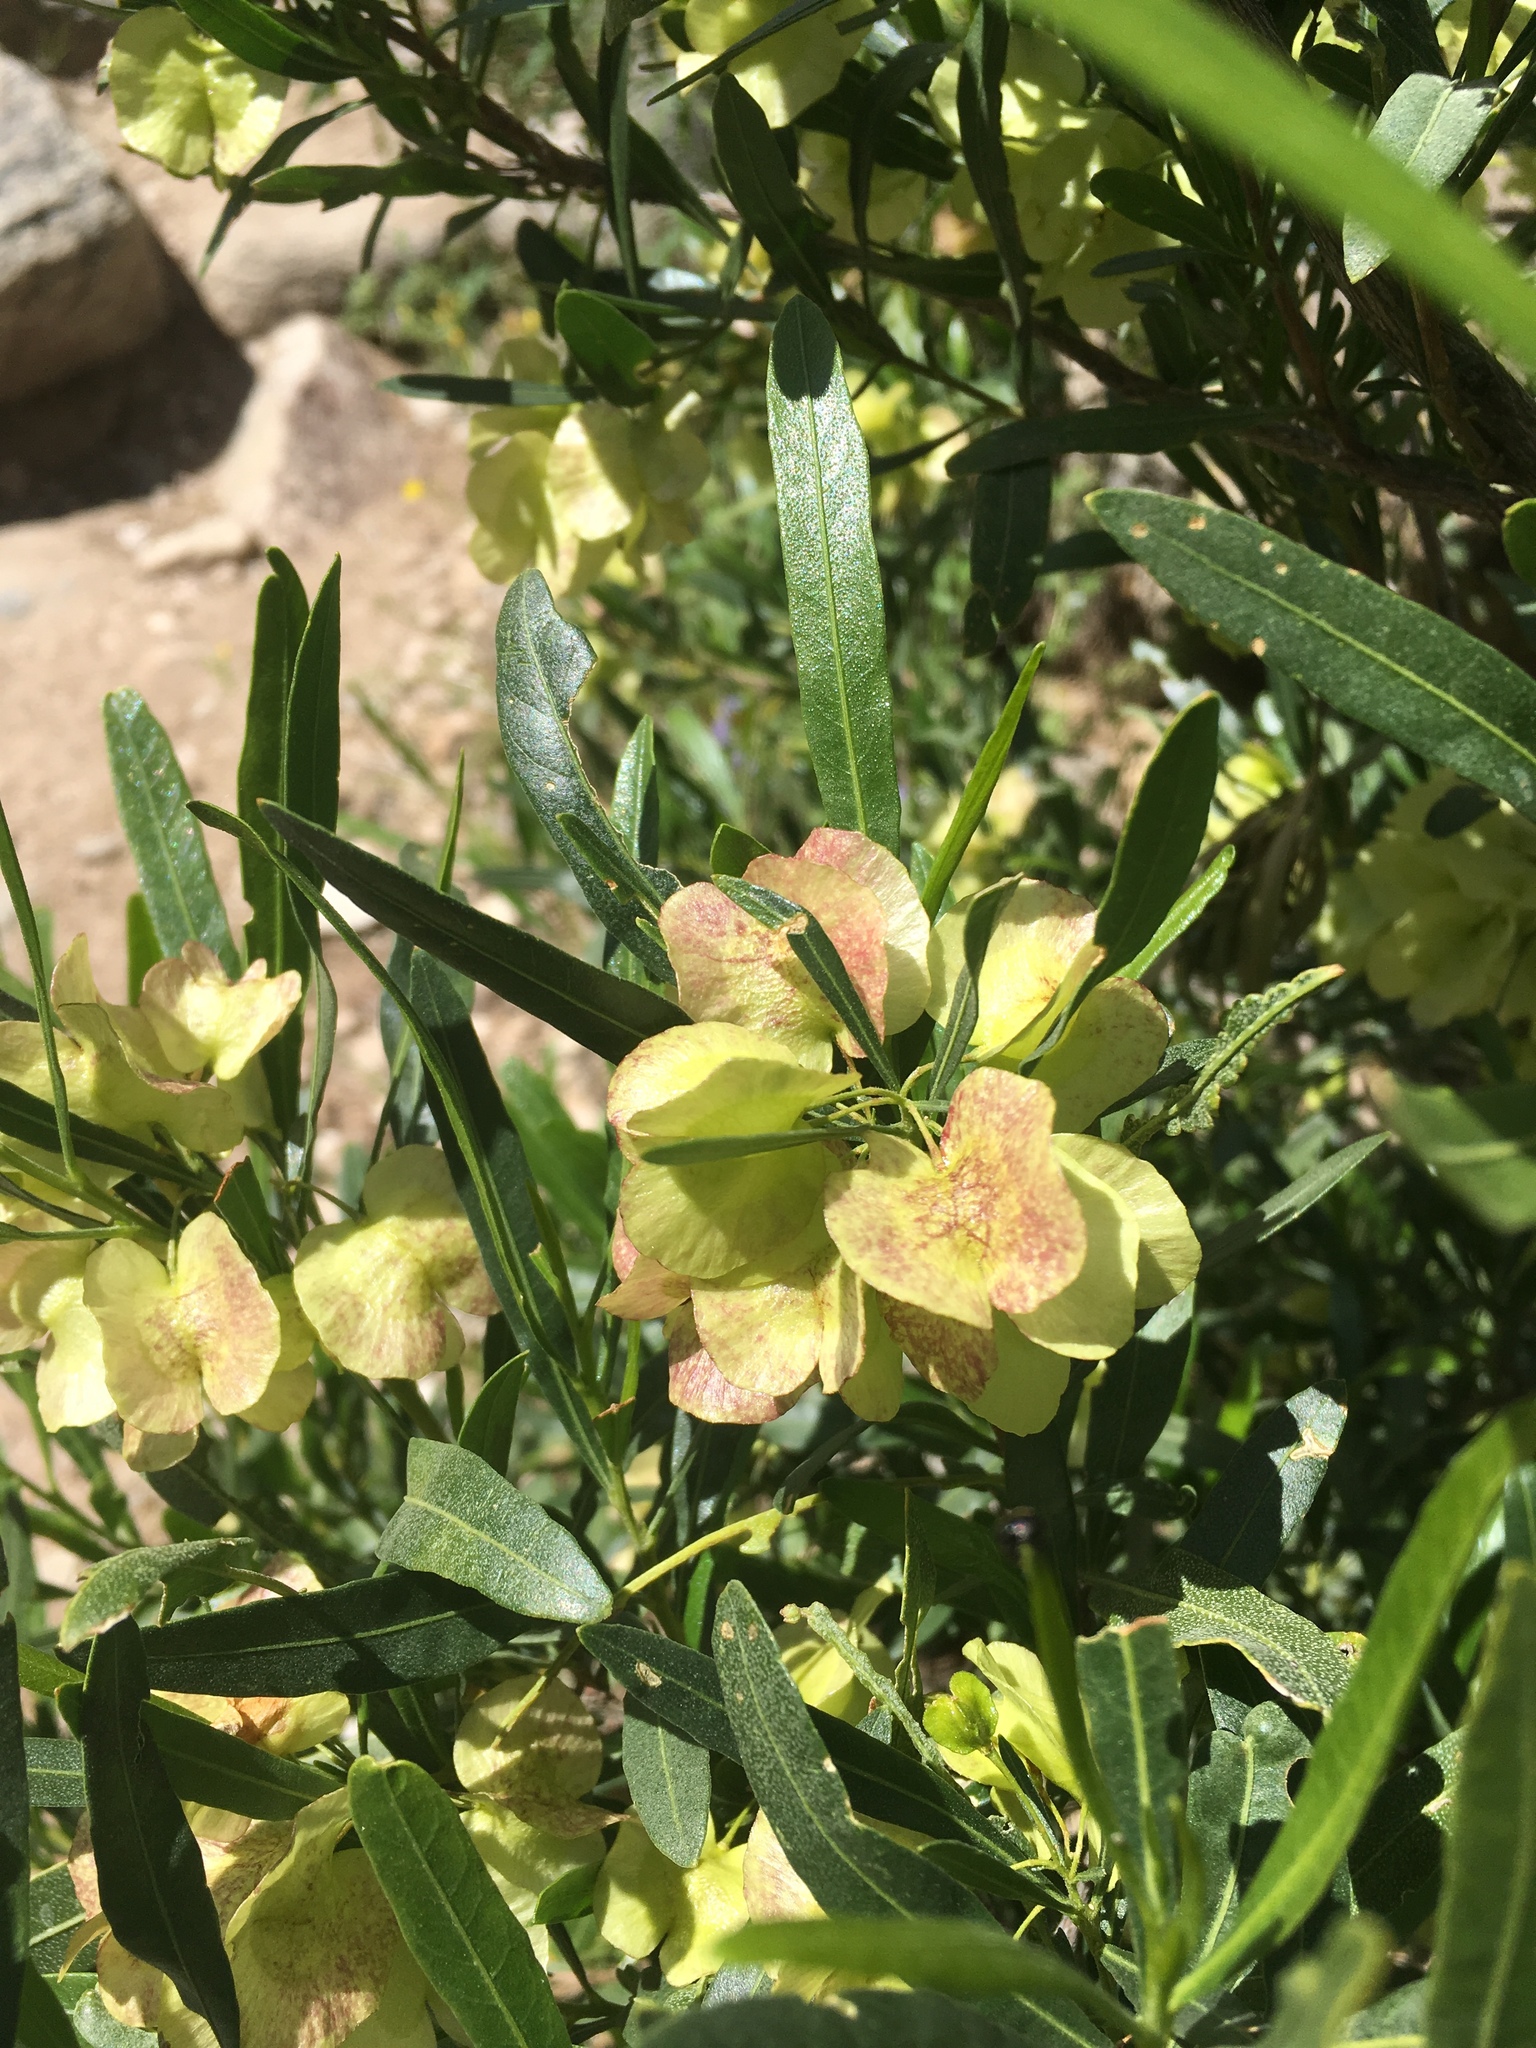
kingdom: Plantae
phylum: Tracheophyta
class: Magnoliopsida
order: Sapindales
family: Sapindaceae
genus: Dodonaea
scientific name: Dodonaea viscosa
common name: Hopbush
